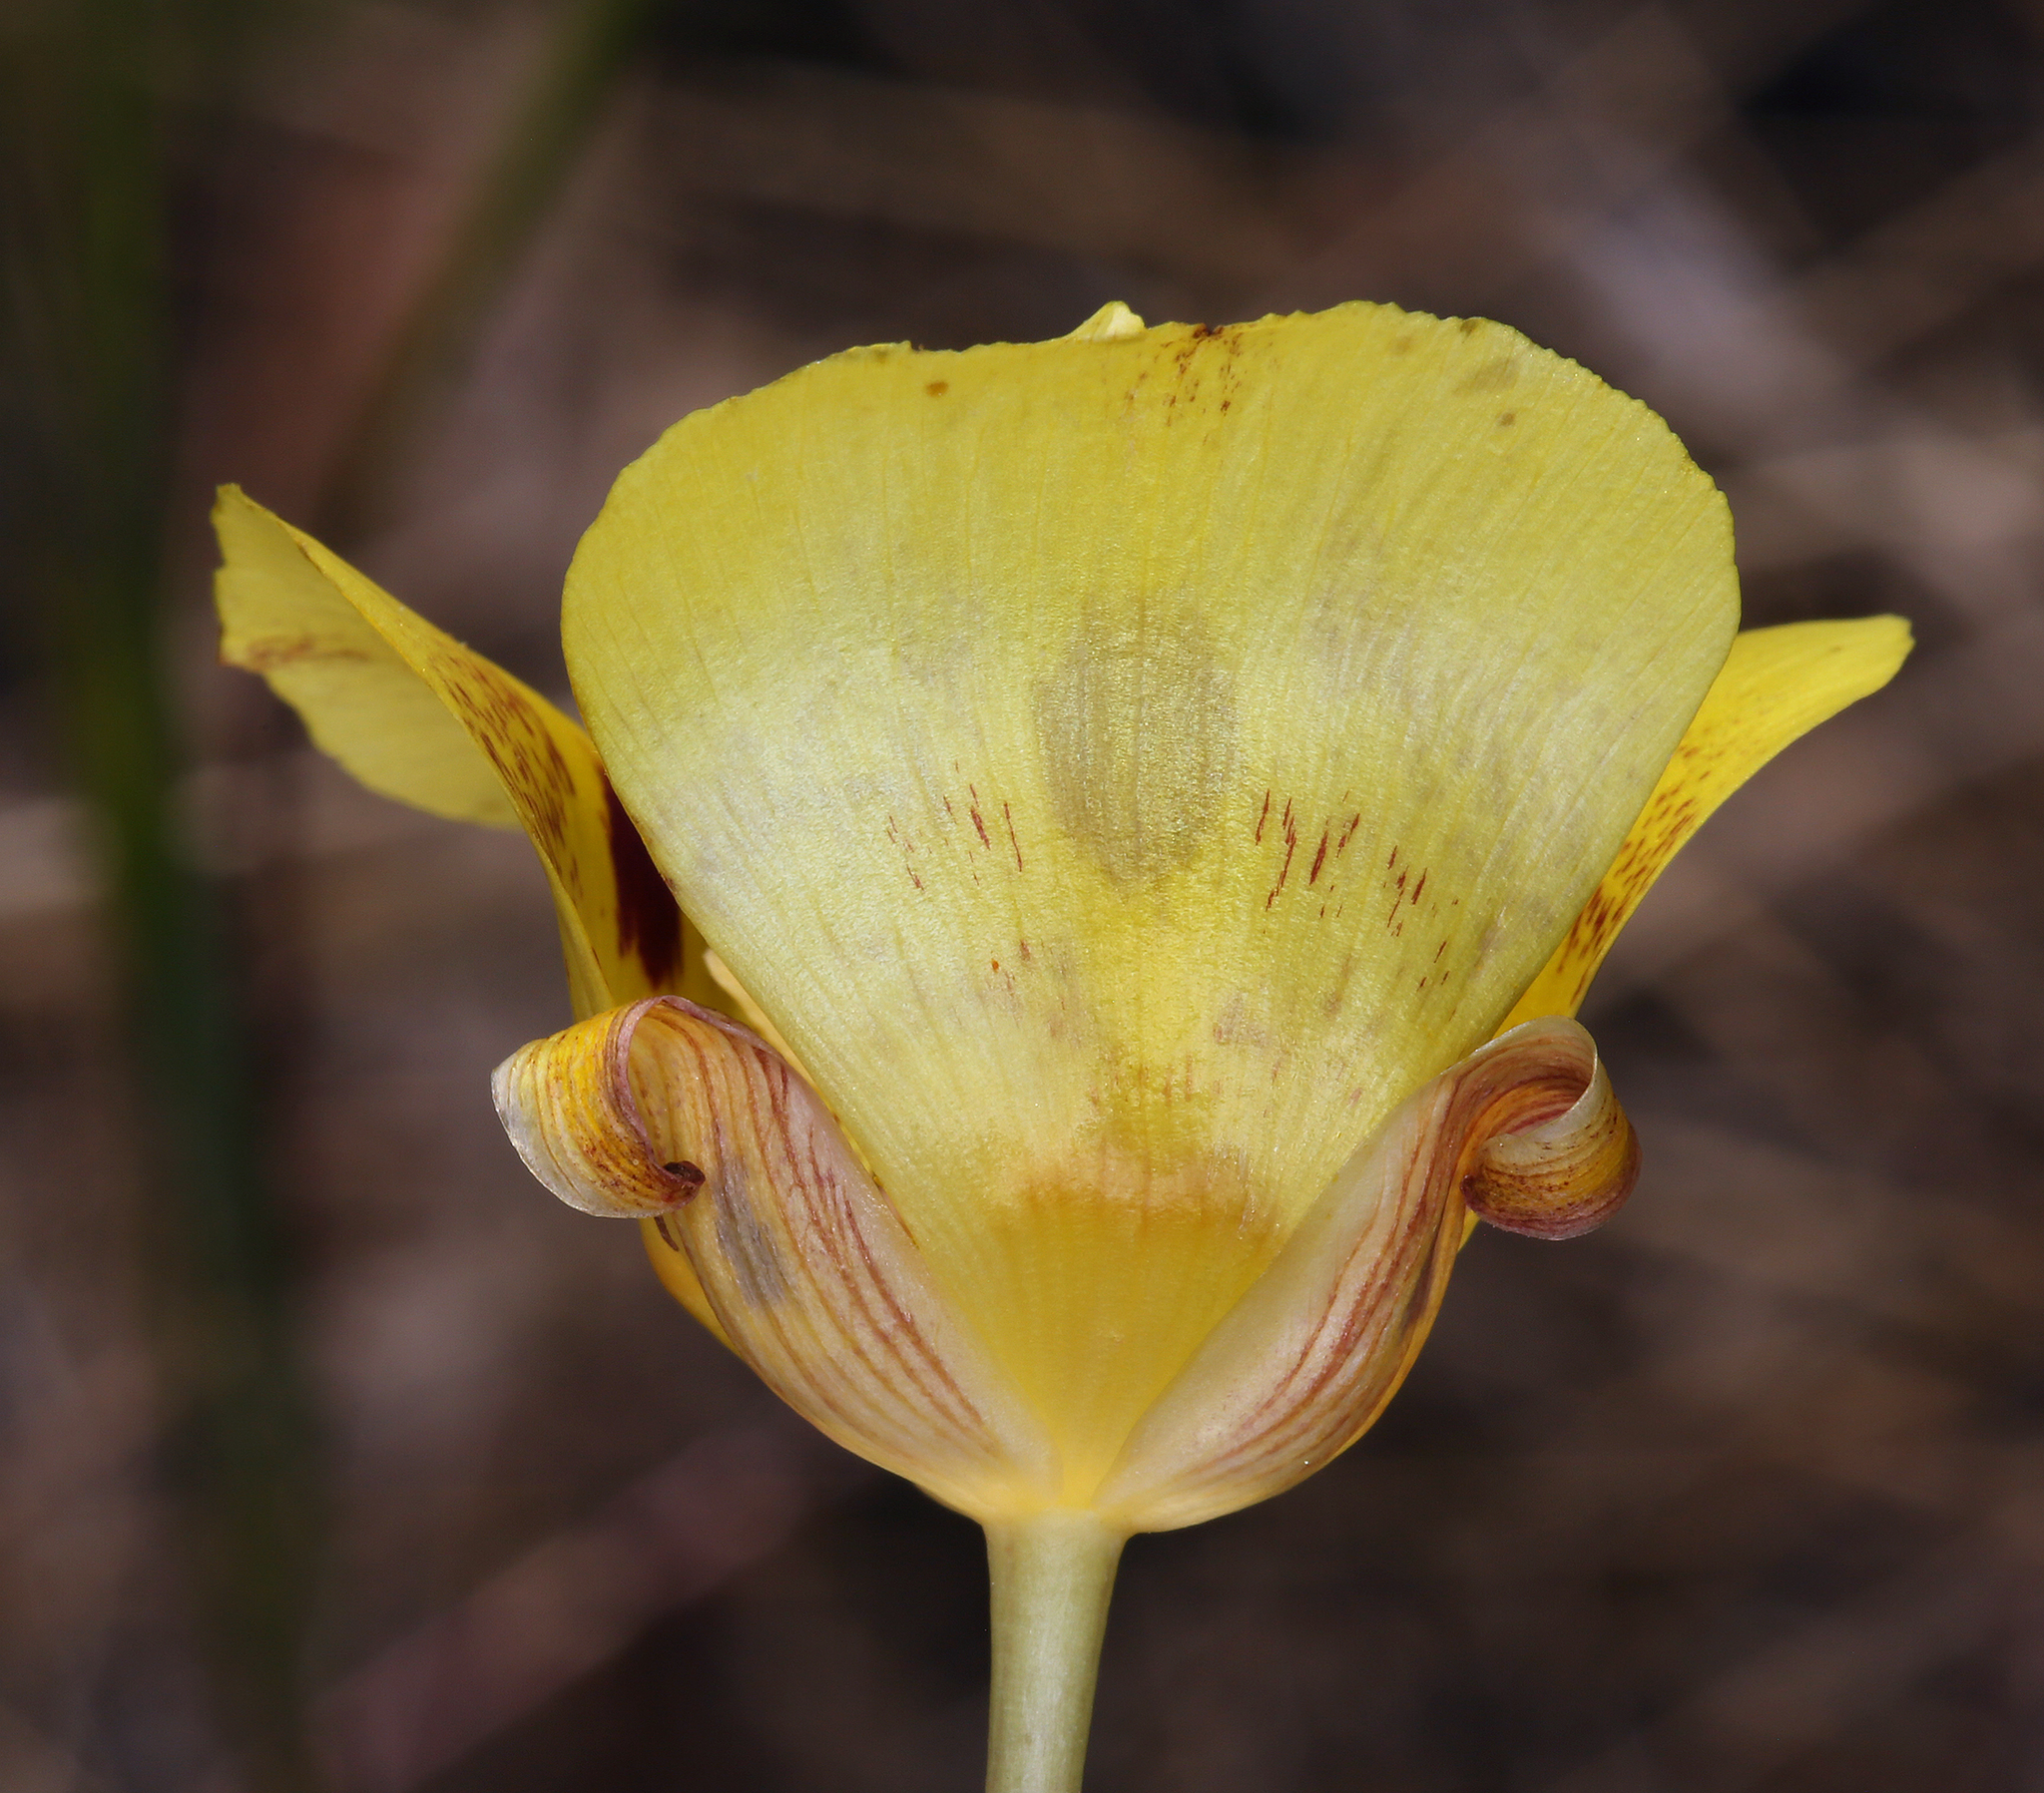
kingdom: Plantae
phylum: Tracheophyta
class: Liliopsida
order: Liliales
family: Liliaceae
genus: Calochortus
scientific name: Calochortus luteus
